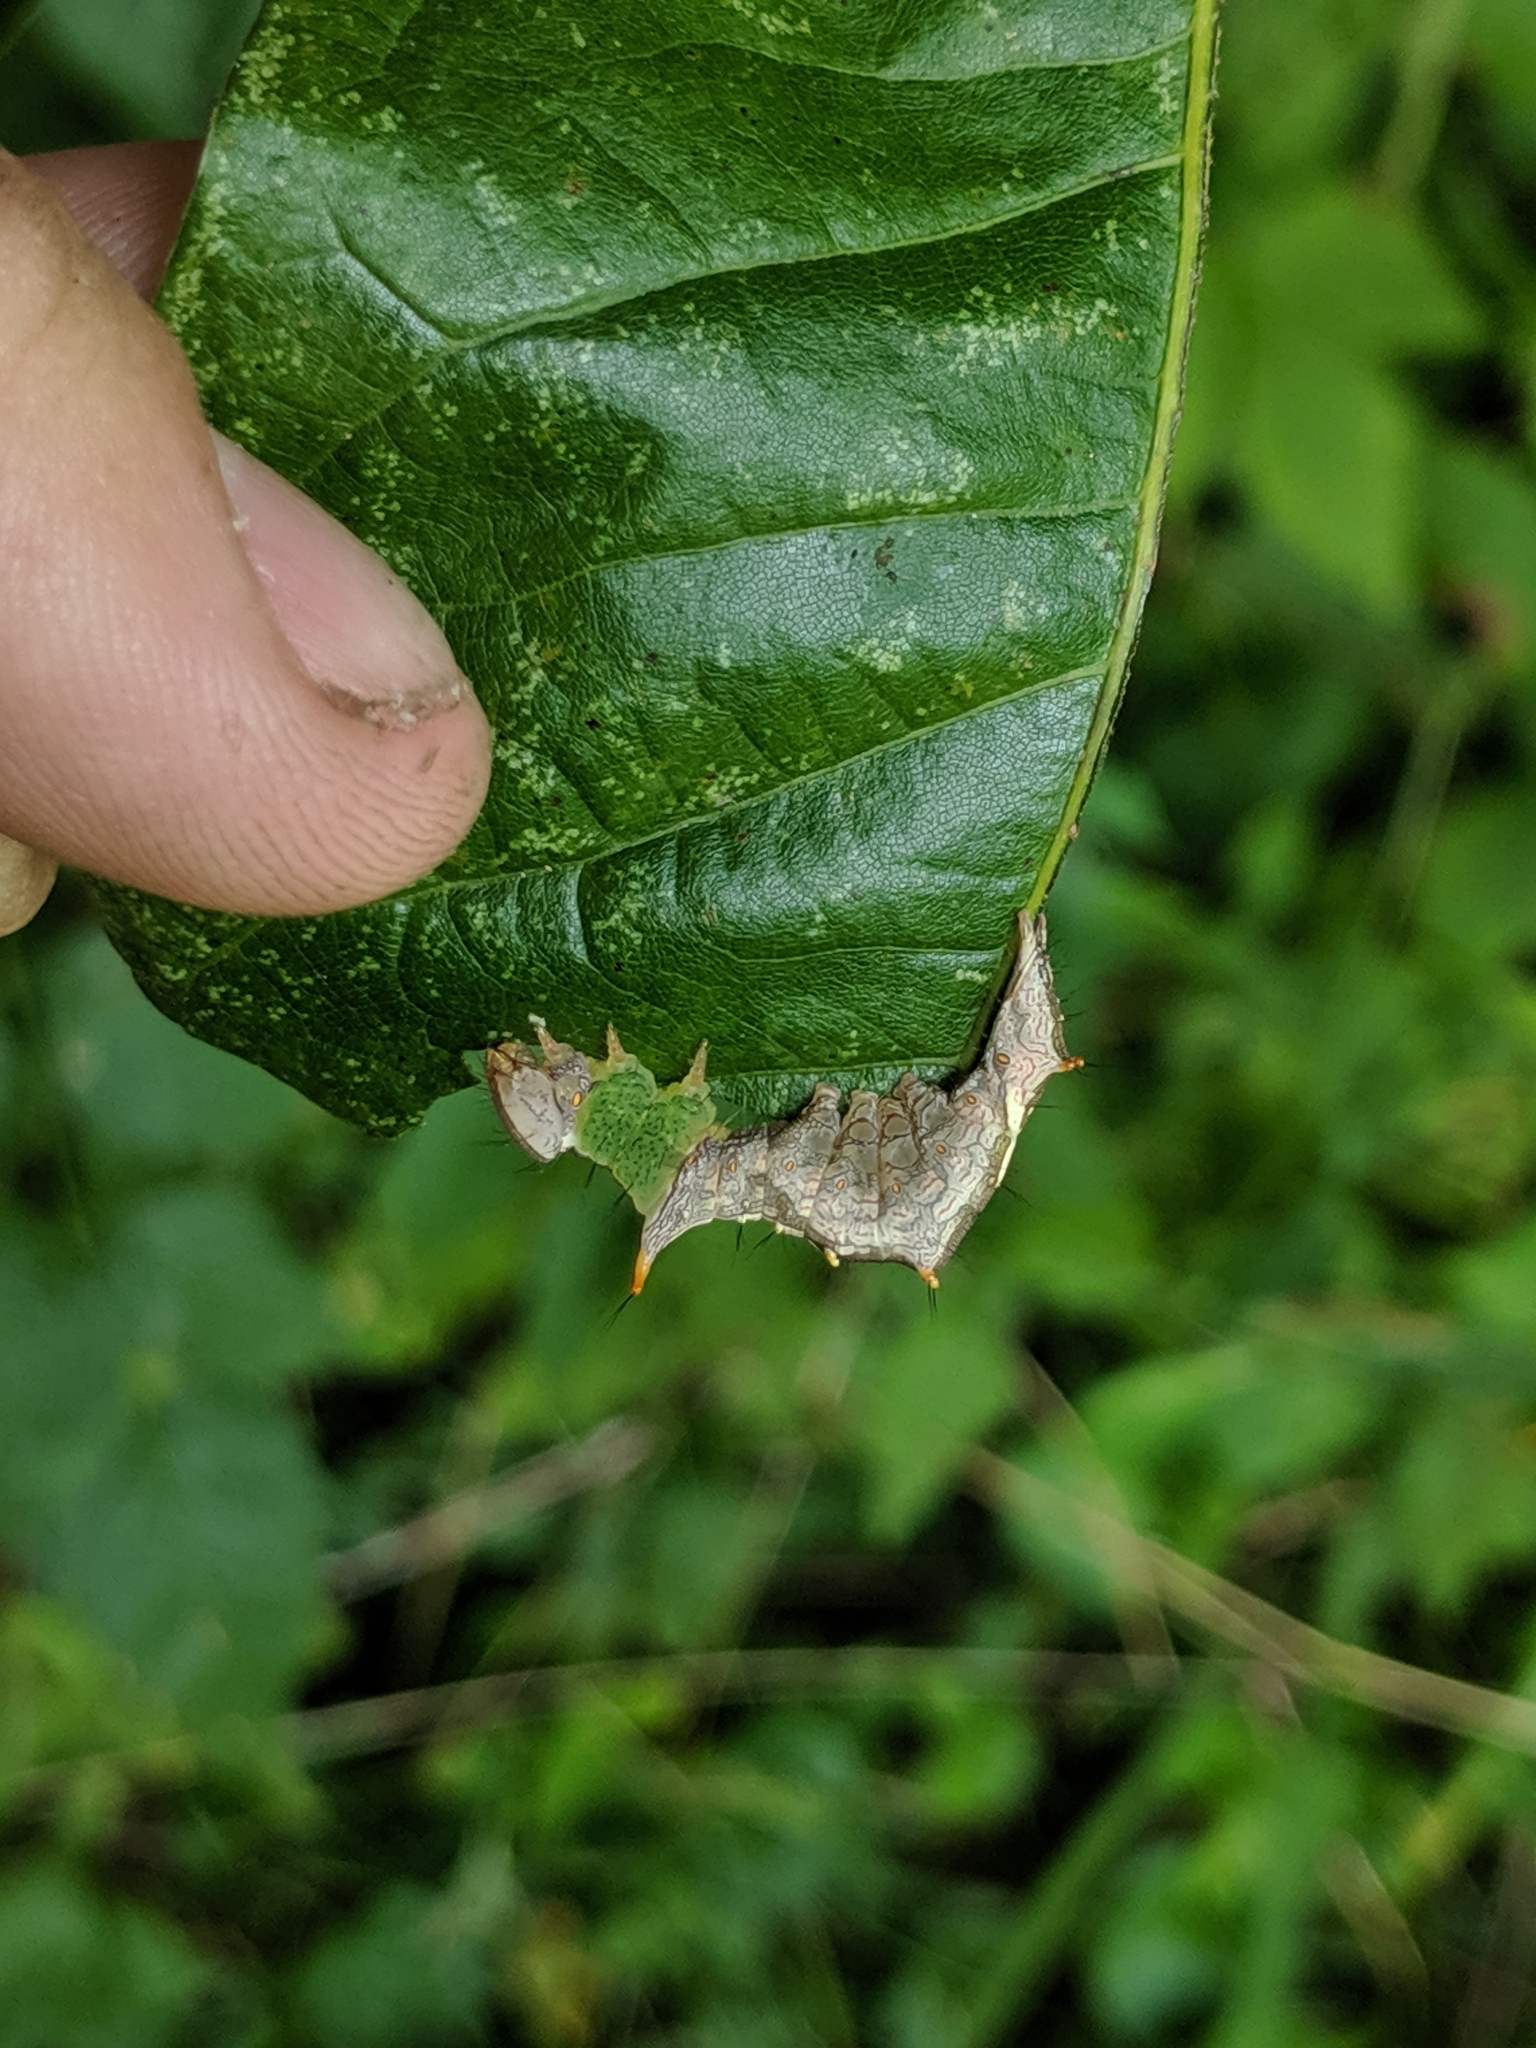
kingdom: Animalia
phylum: Arthropoda
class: Insecta
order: Lepidoptera
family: Notodontidae
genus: Schizura
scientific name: Schizura ipomaeae
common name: Morning-glory prominent
